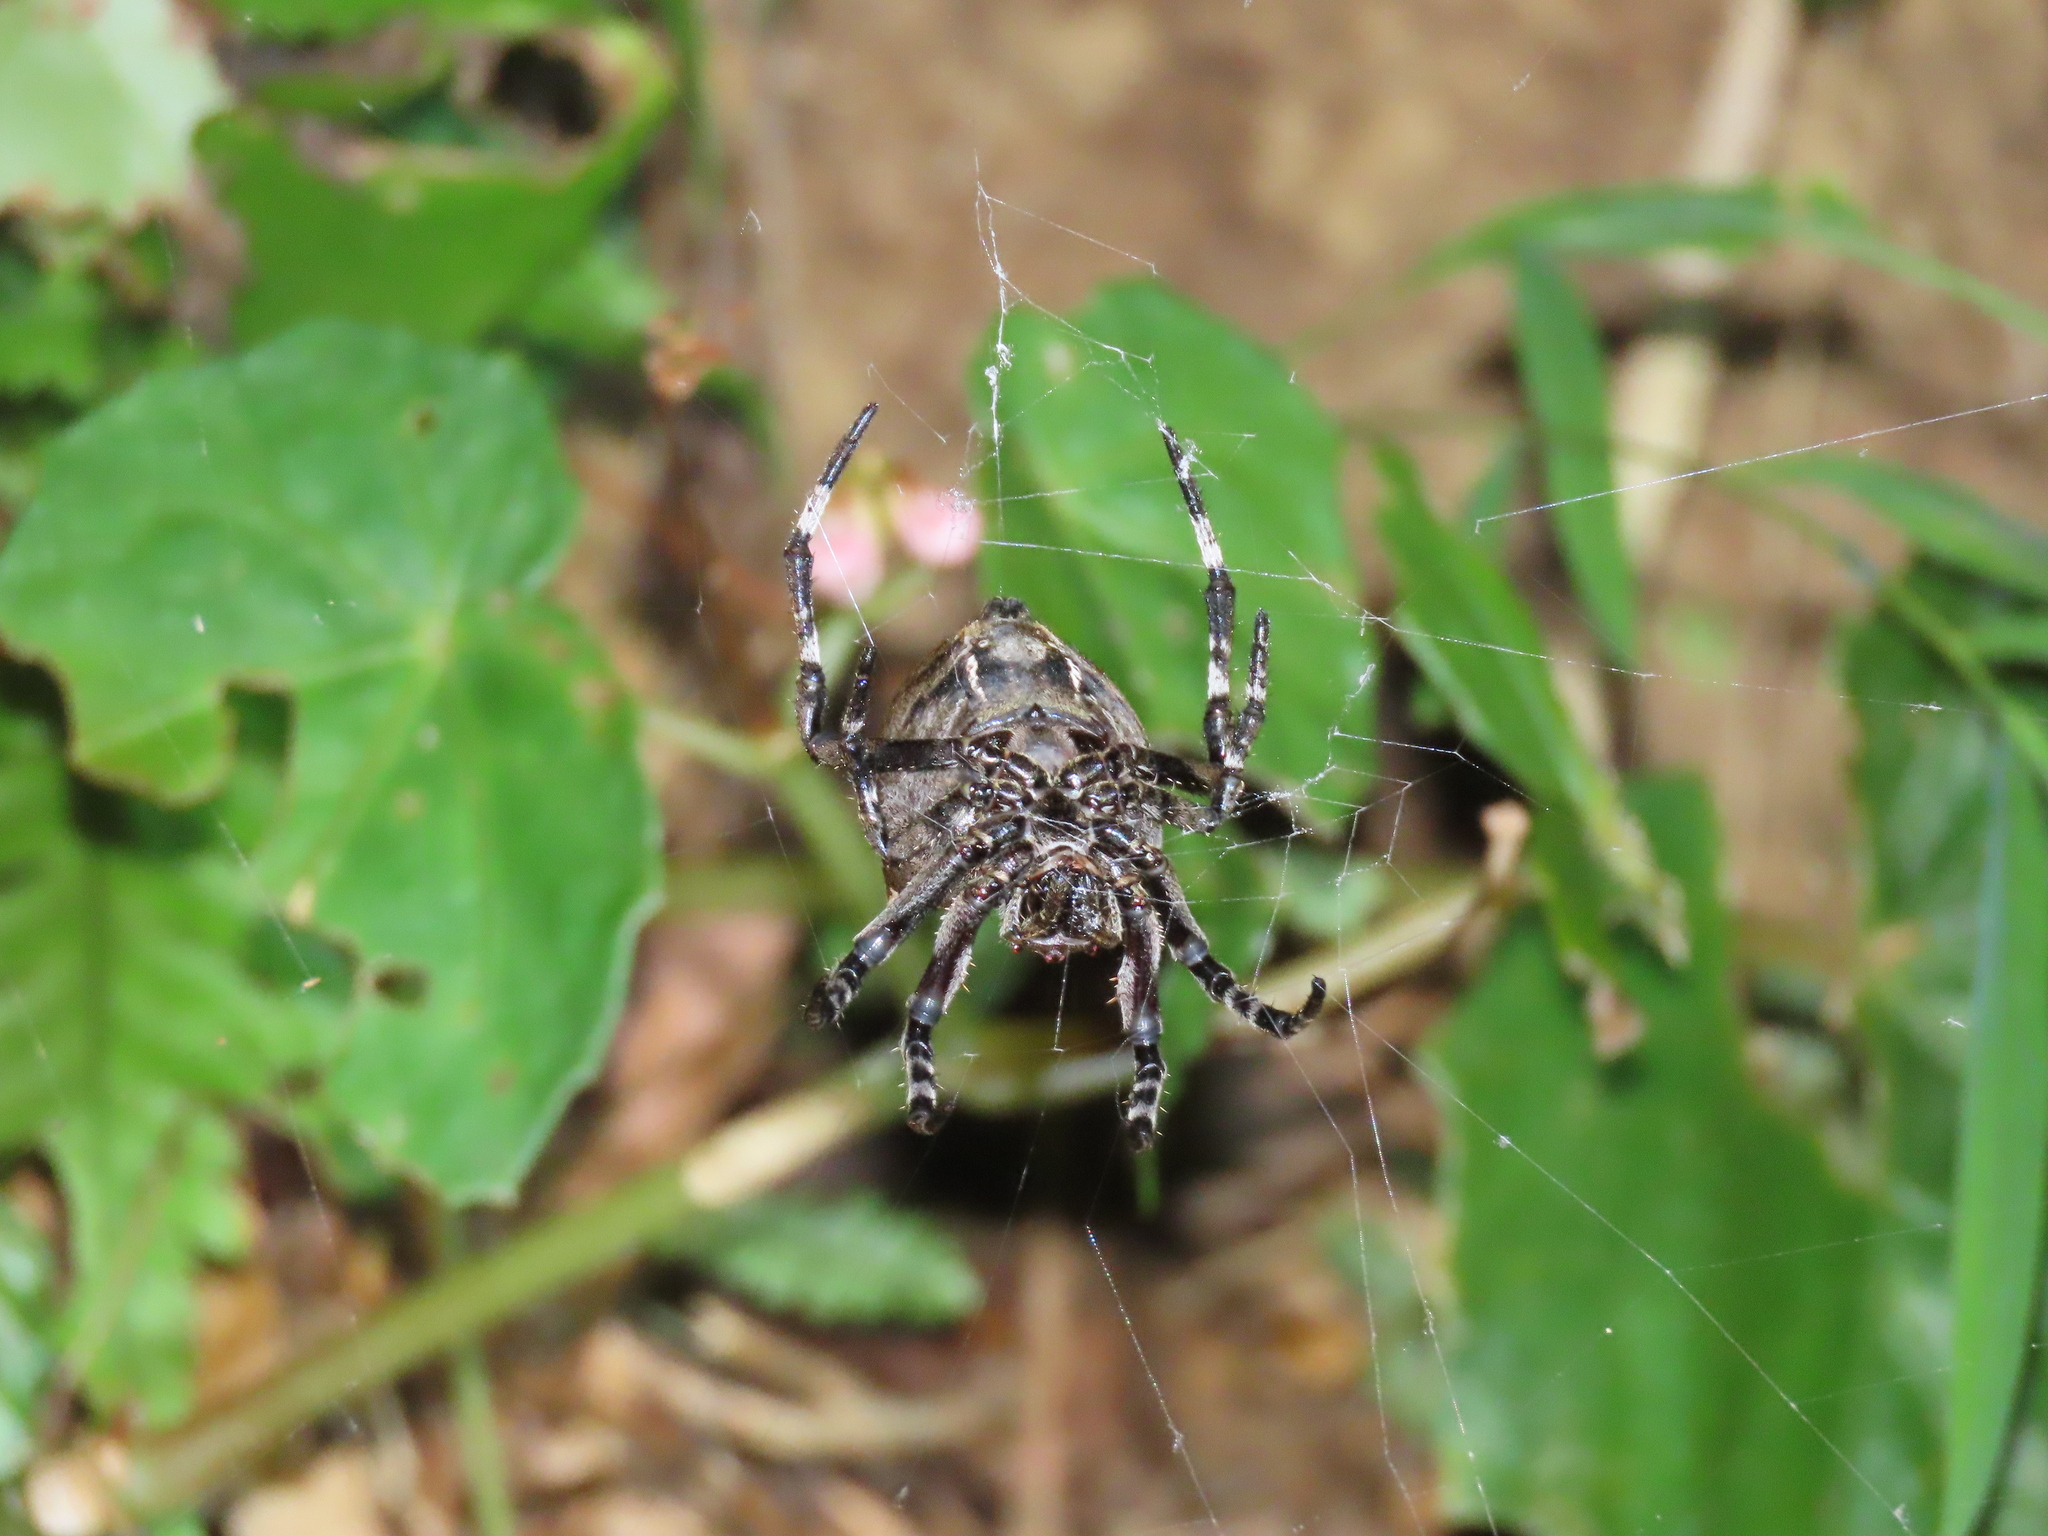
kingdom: Animalia
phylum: Arthropoda
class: Arachnida
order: Araneae
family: Araneidae
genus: Parawixia
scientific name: Parawixia dehaani
